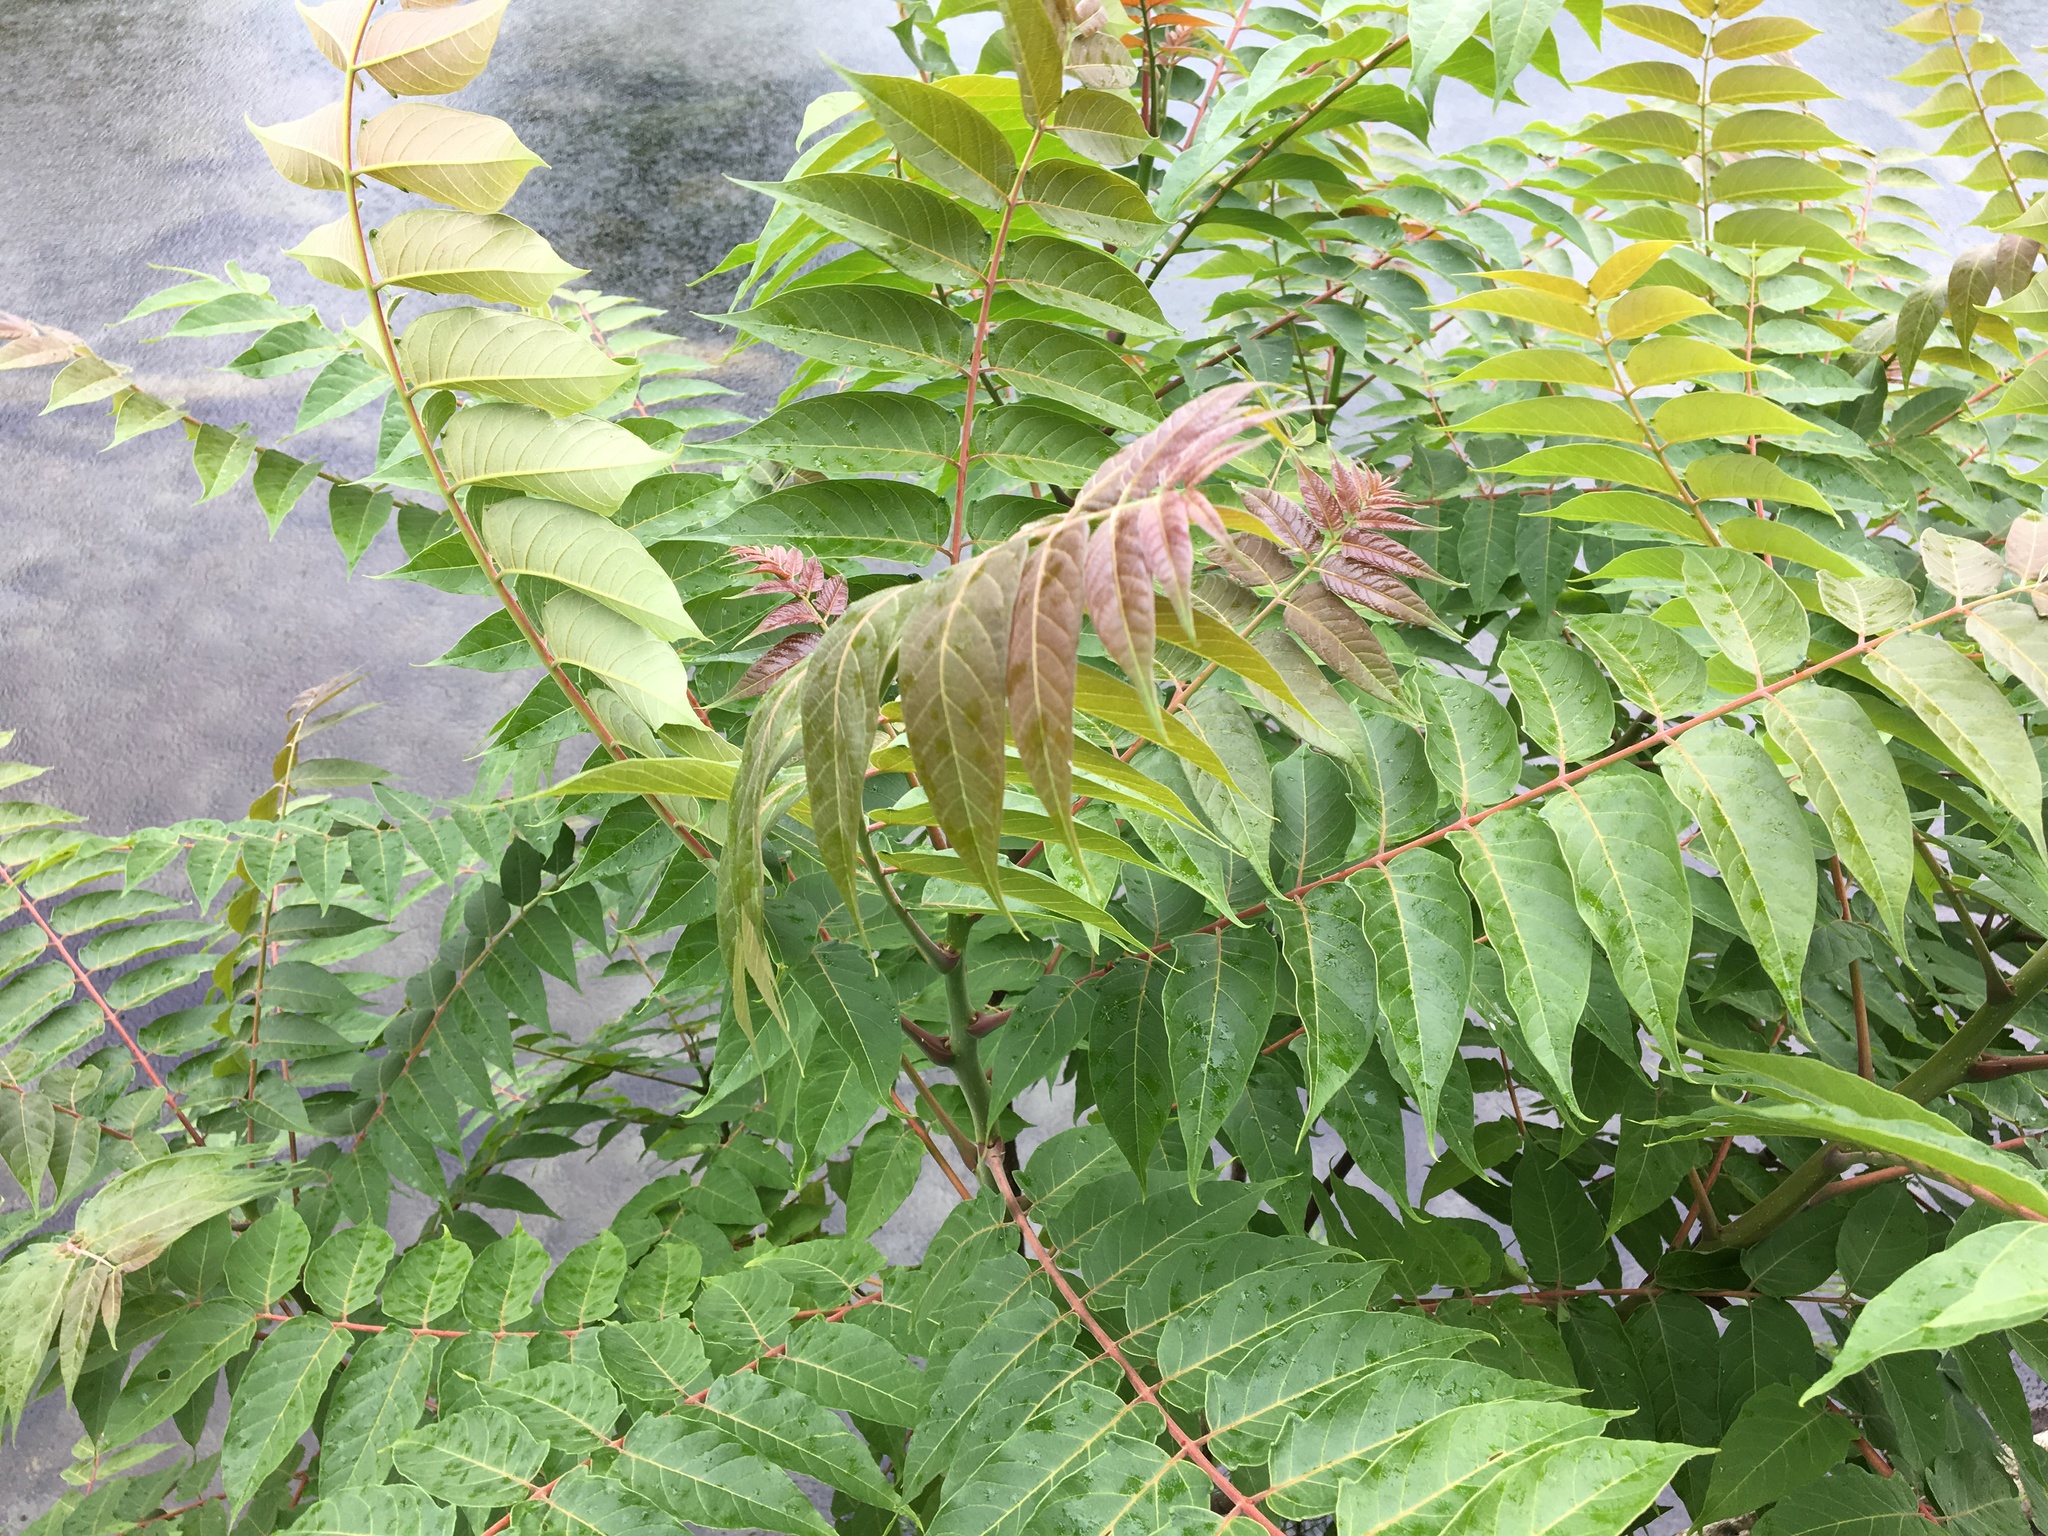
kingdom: Plantae
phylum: Tracheophyta
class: Magnoliopsida
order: Sapindales
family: Simaroubaceae
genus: Ailanthus
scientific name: Ailanthus altissima
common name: Tree-of-heaven
